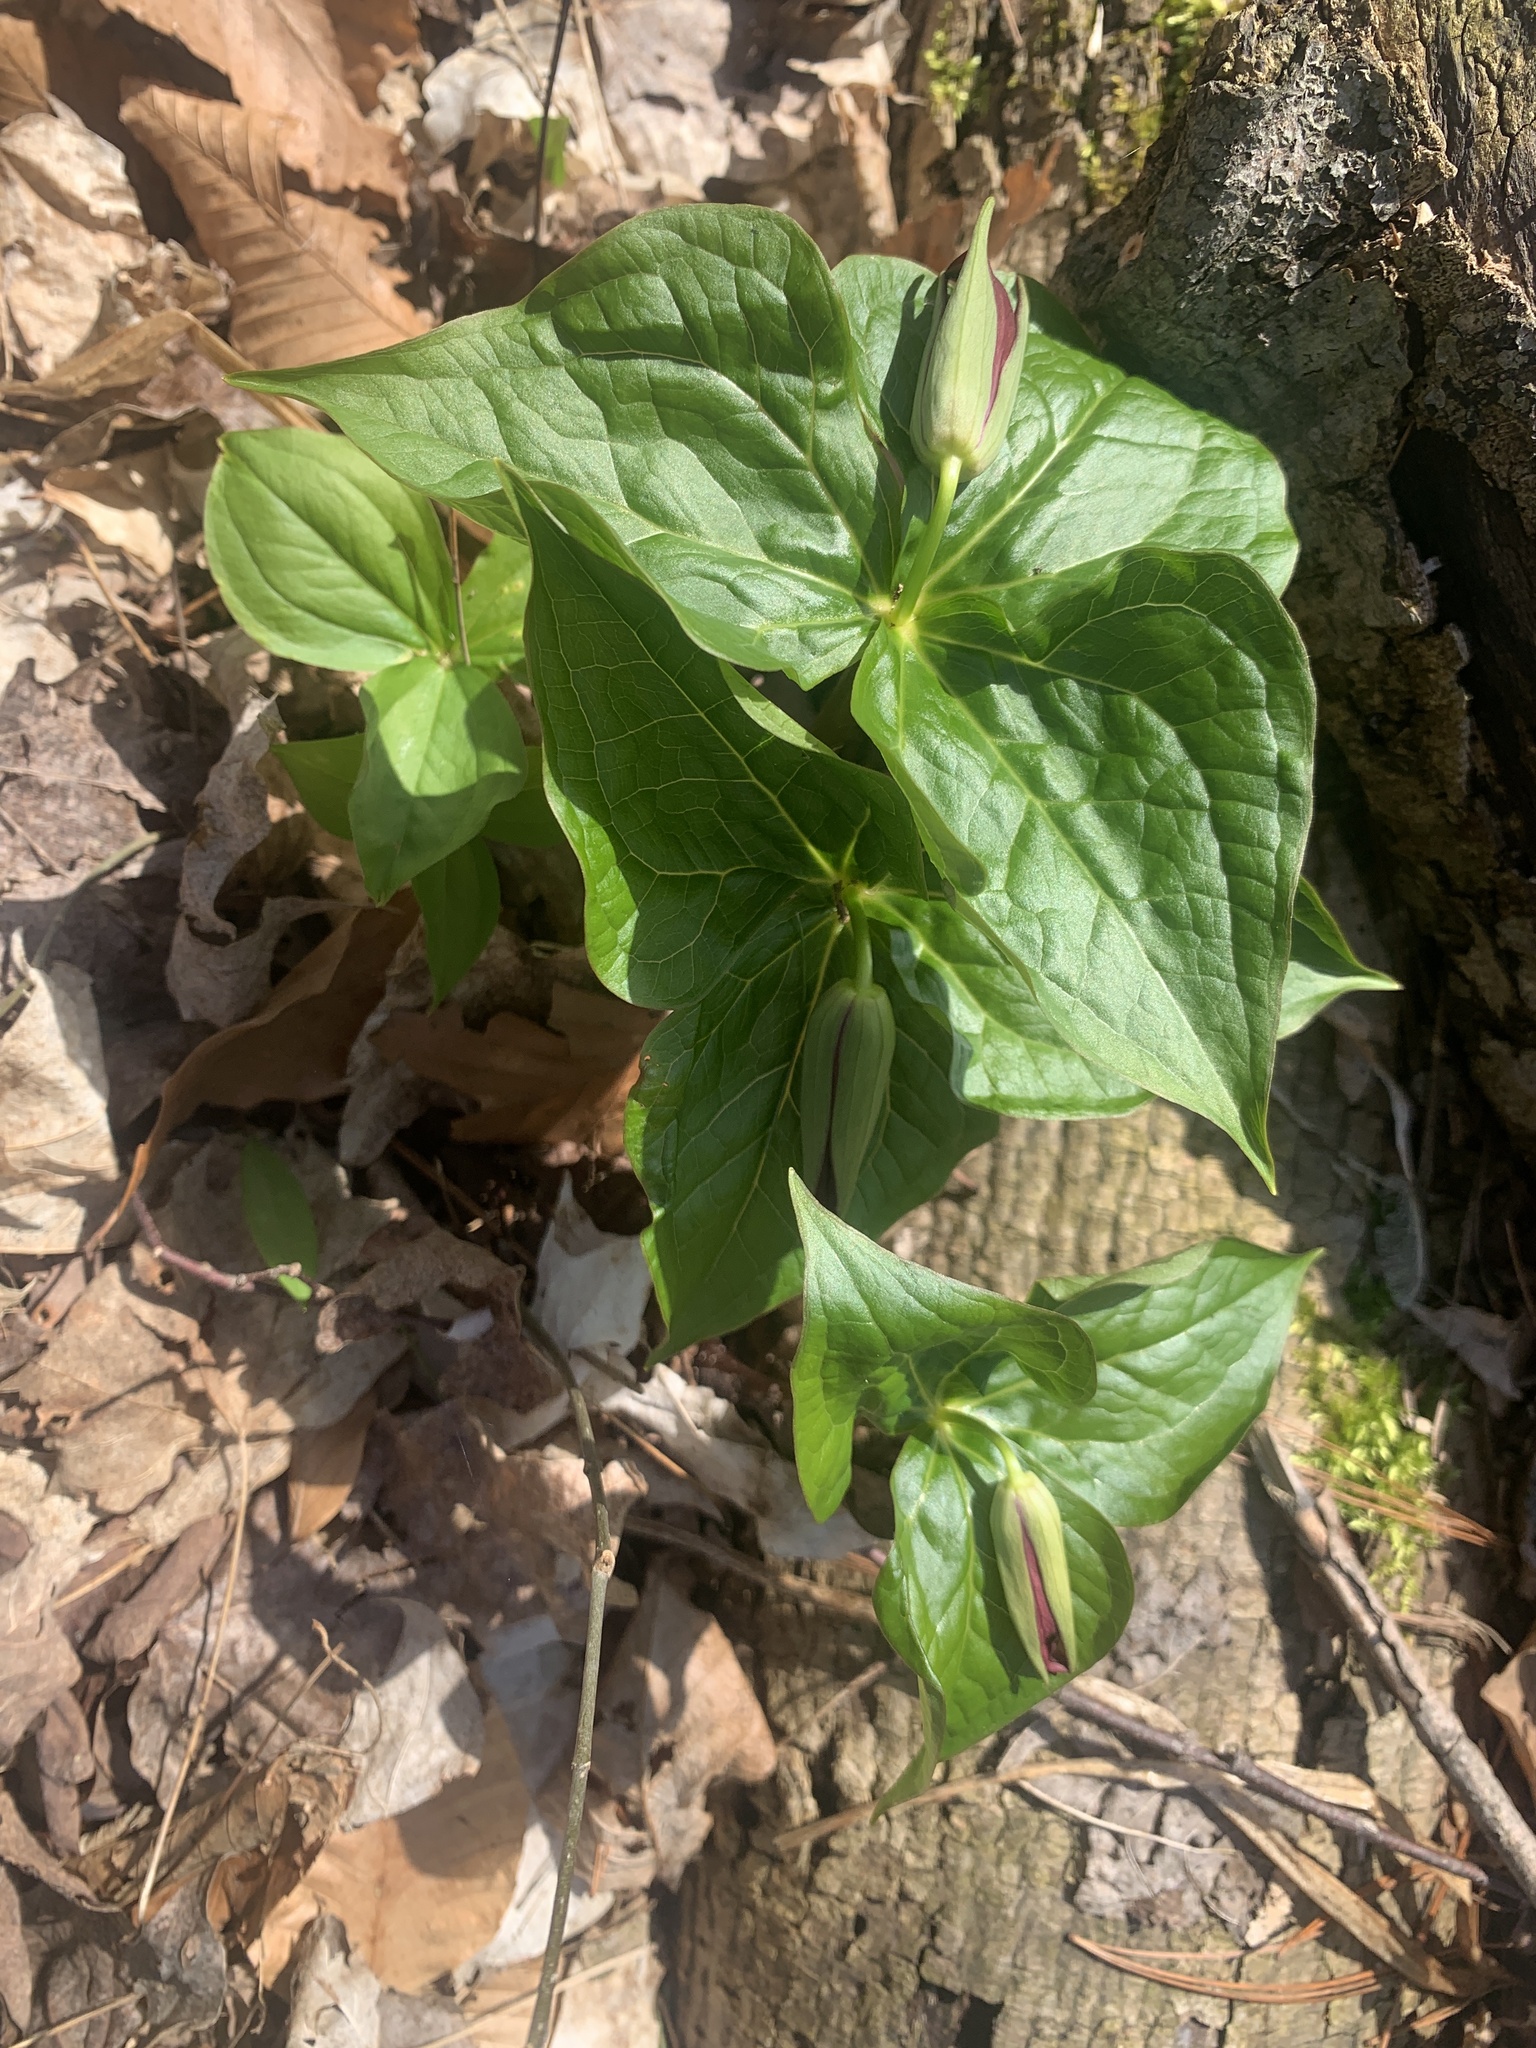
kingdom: Plantae
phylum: Tracheophyta
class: Liliopsida
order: Liliales
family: Melanthiaceae
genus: Trillium
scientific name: Trillium erectum
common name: Purple trillium
